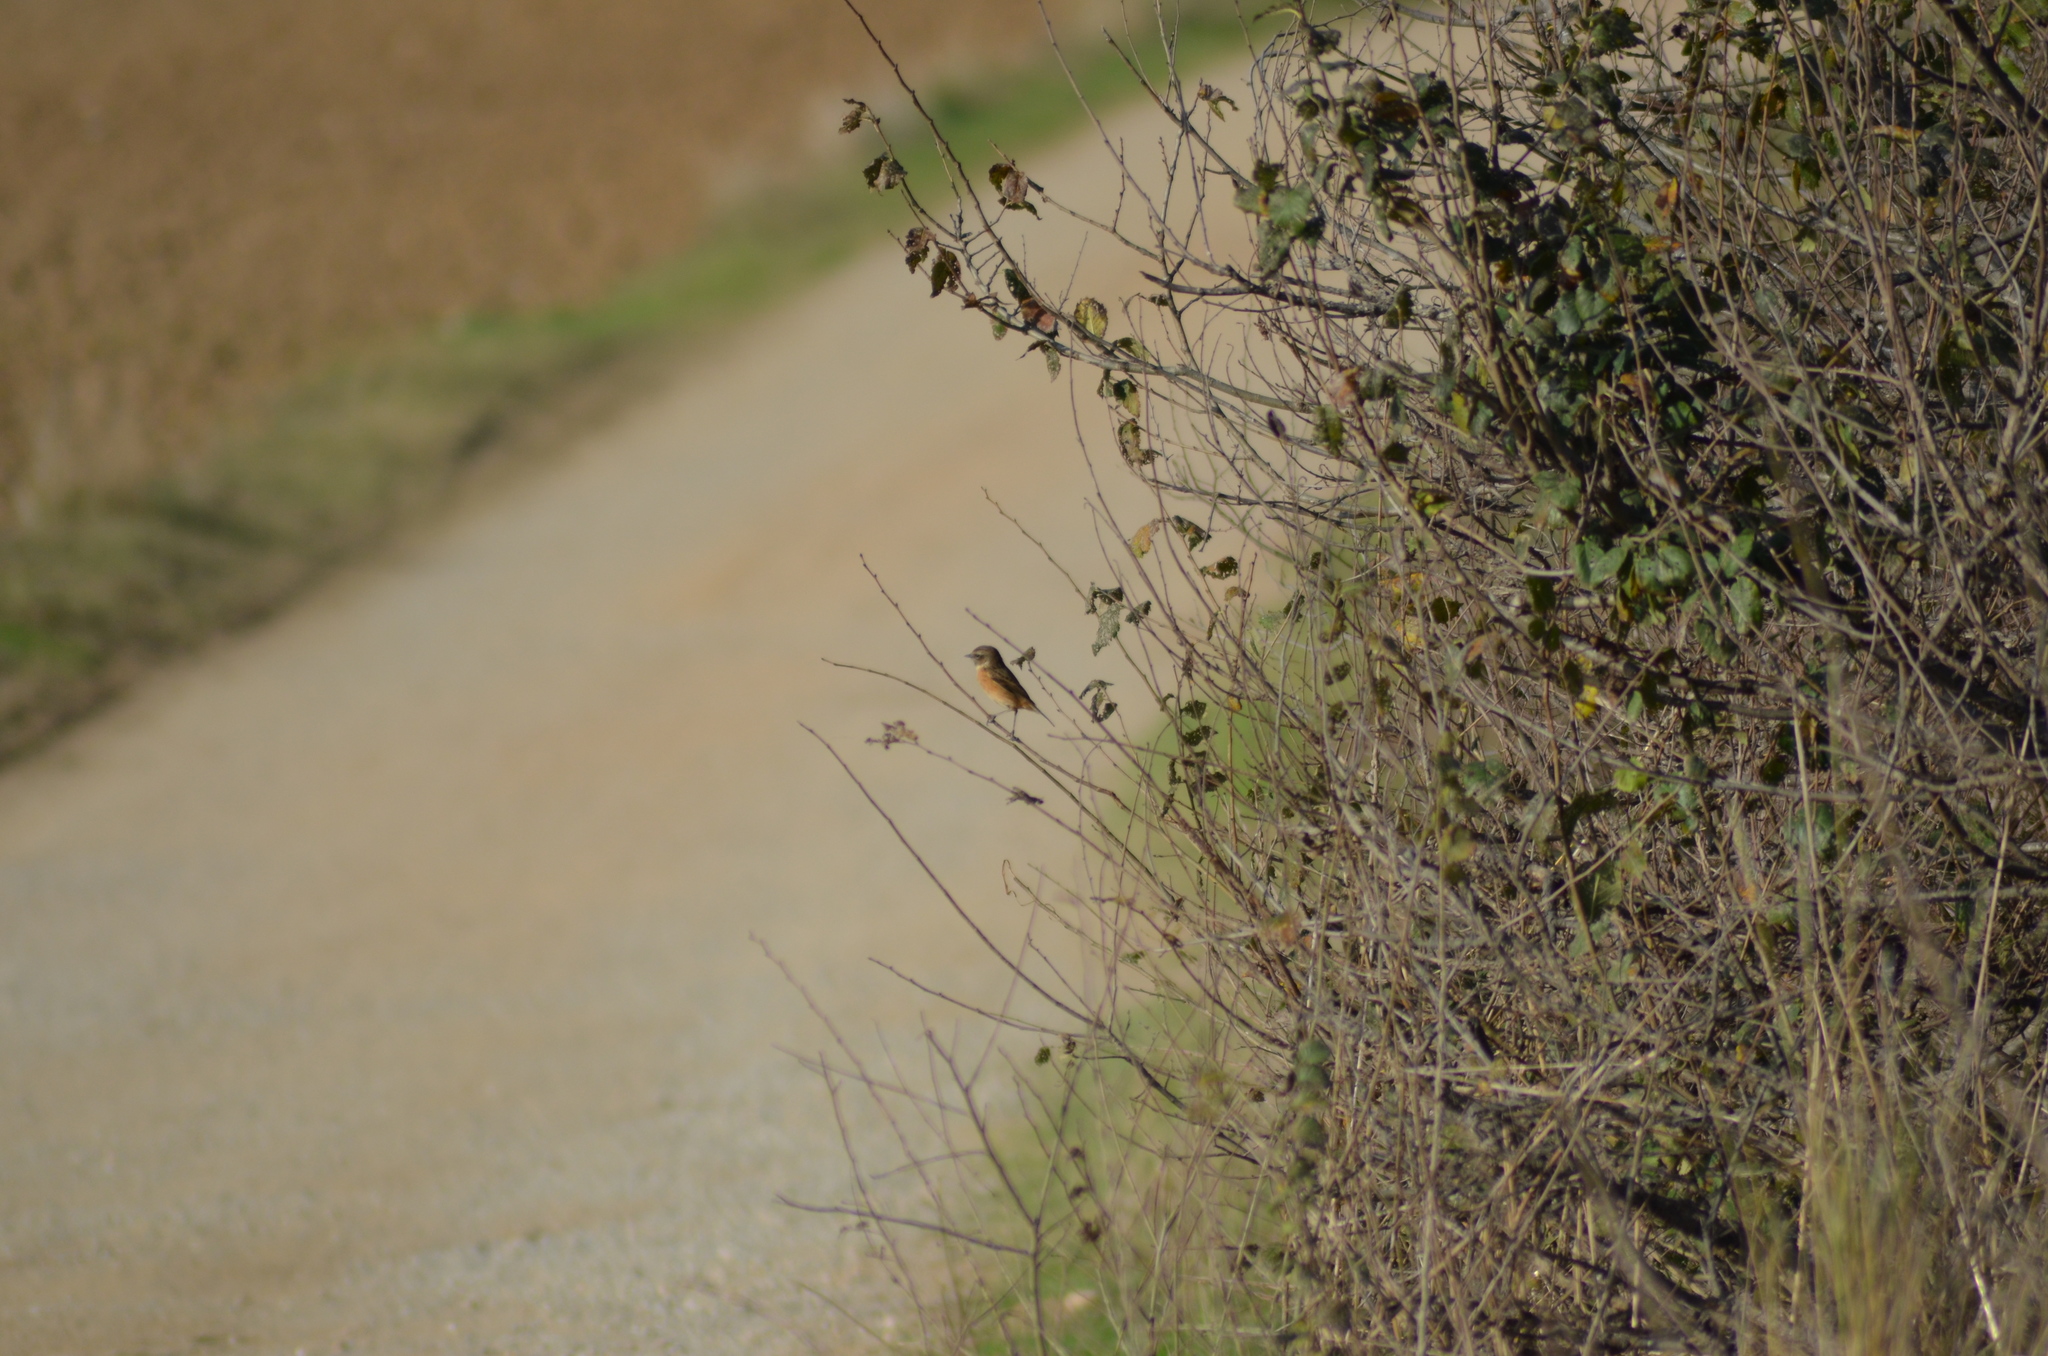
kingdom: Animalia
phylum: Chordata
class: Aves
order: Passeriformes
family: Muscicapidae
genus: Saxicola
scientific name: Saxicola rubicola
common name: European stonechat
